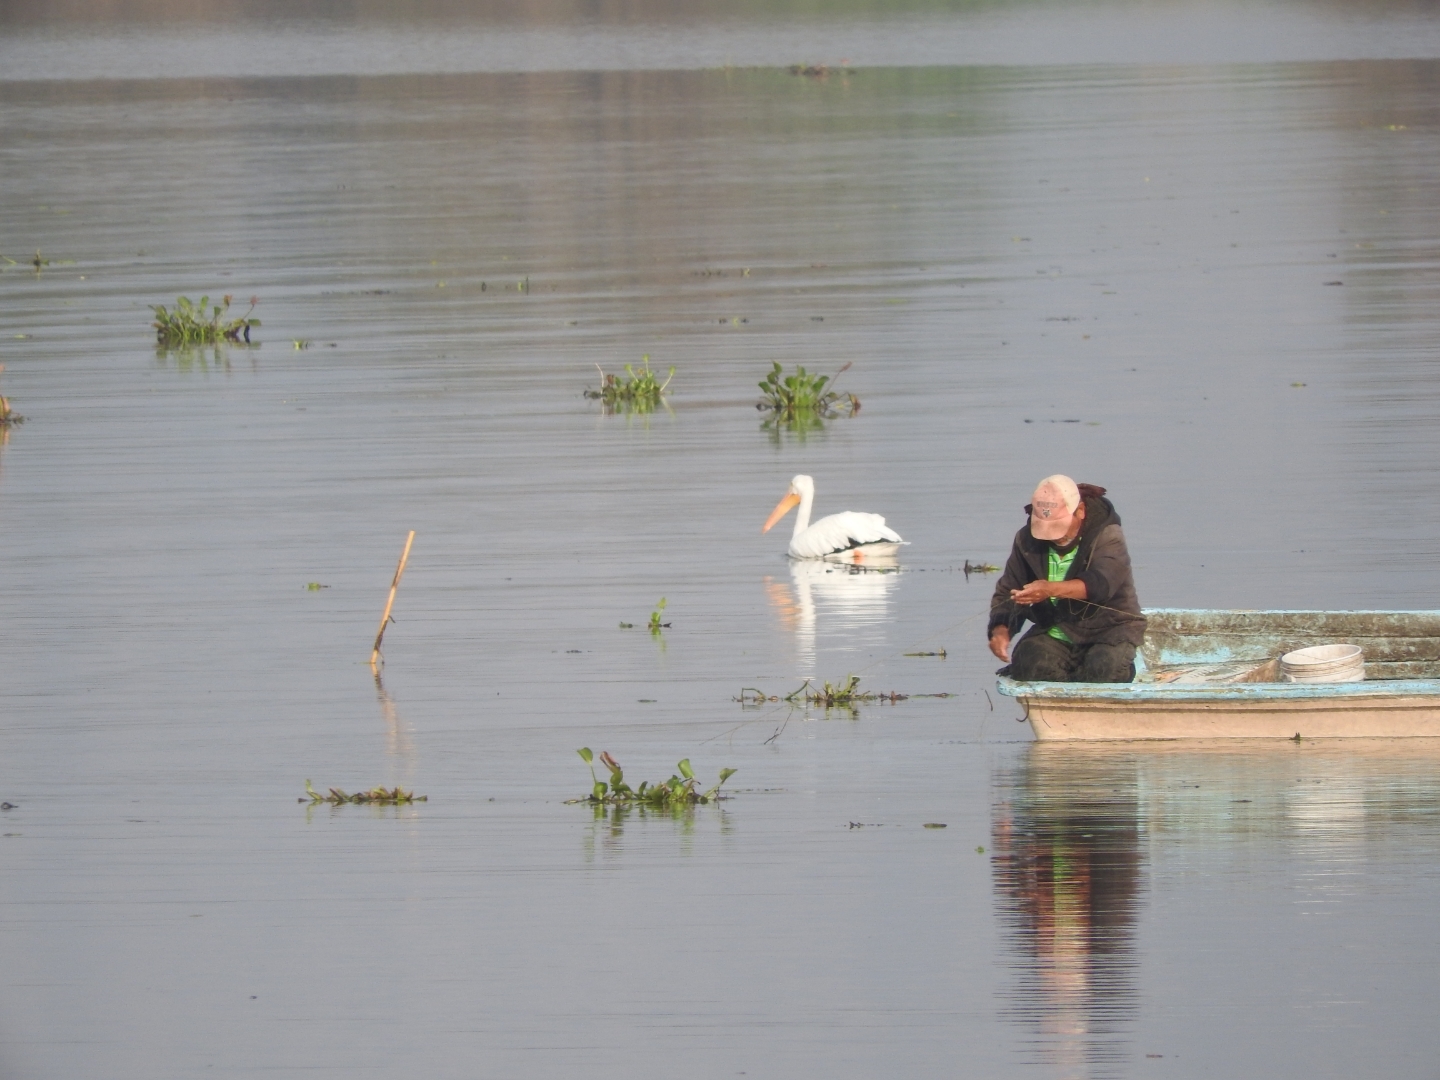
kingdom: Animalia
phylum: Chordata
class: Aves
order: Pelecaniformes
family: Pelecanidae
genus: Pelecanus
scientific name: Pelecanus erythrorhynchos
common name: American white pelican
